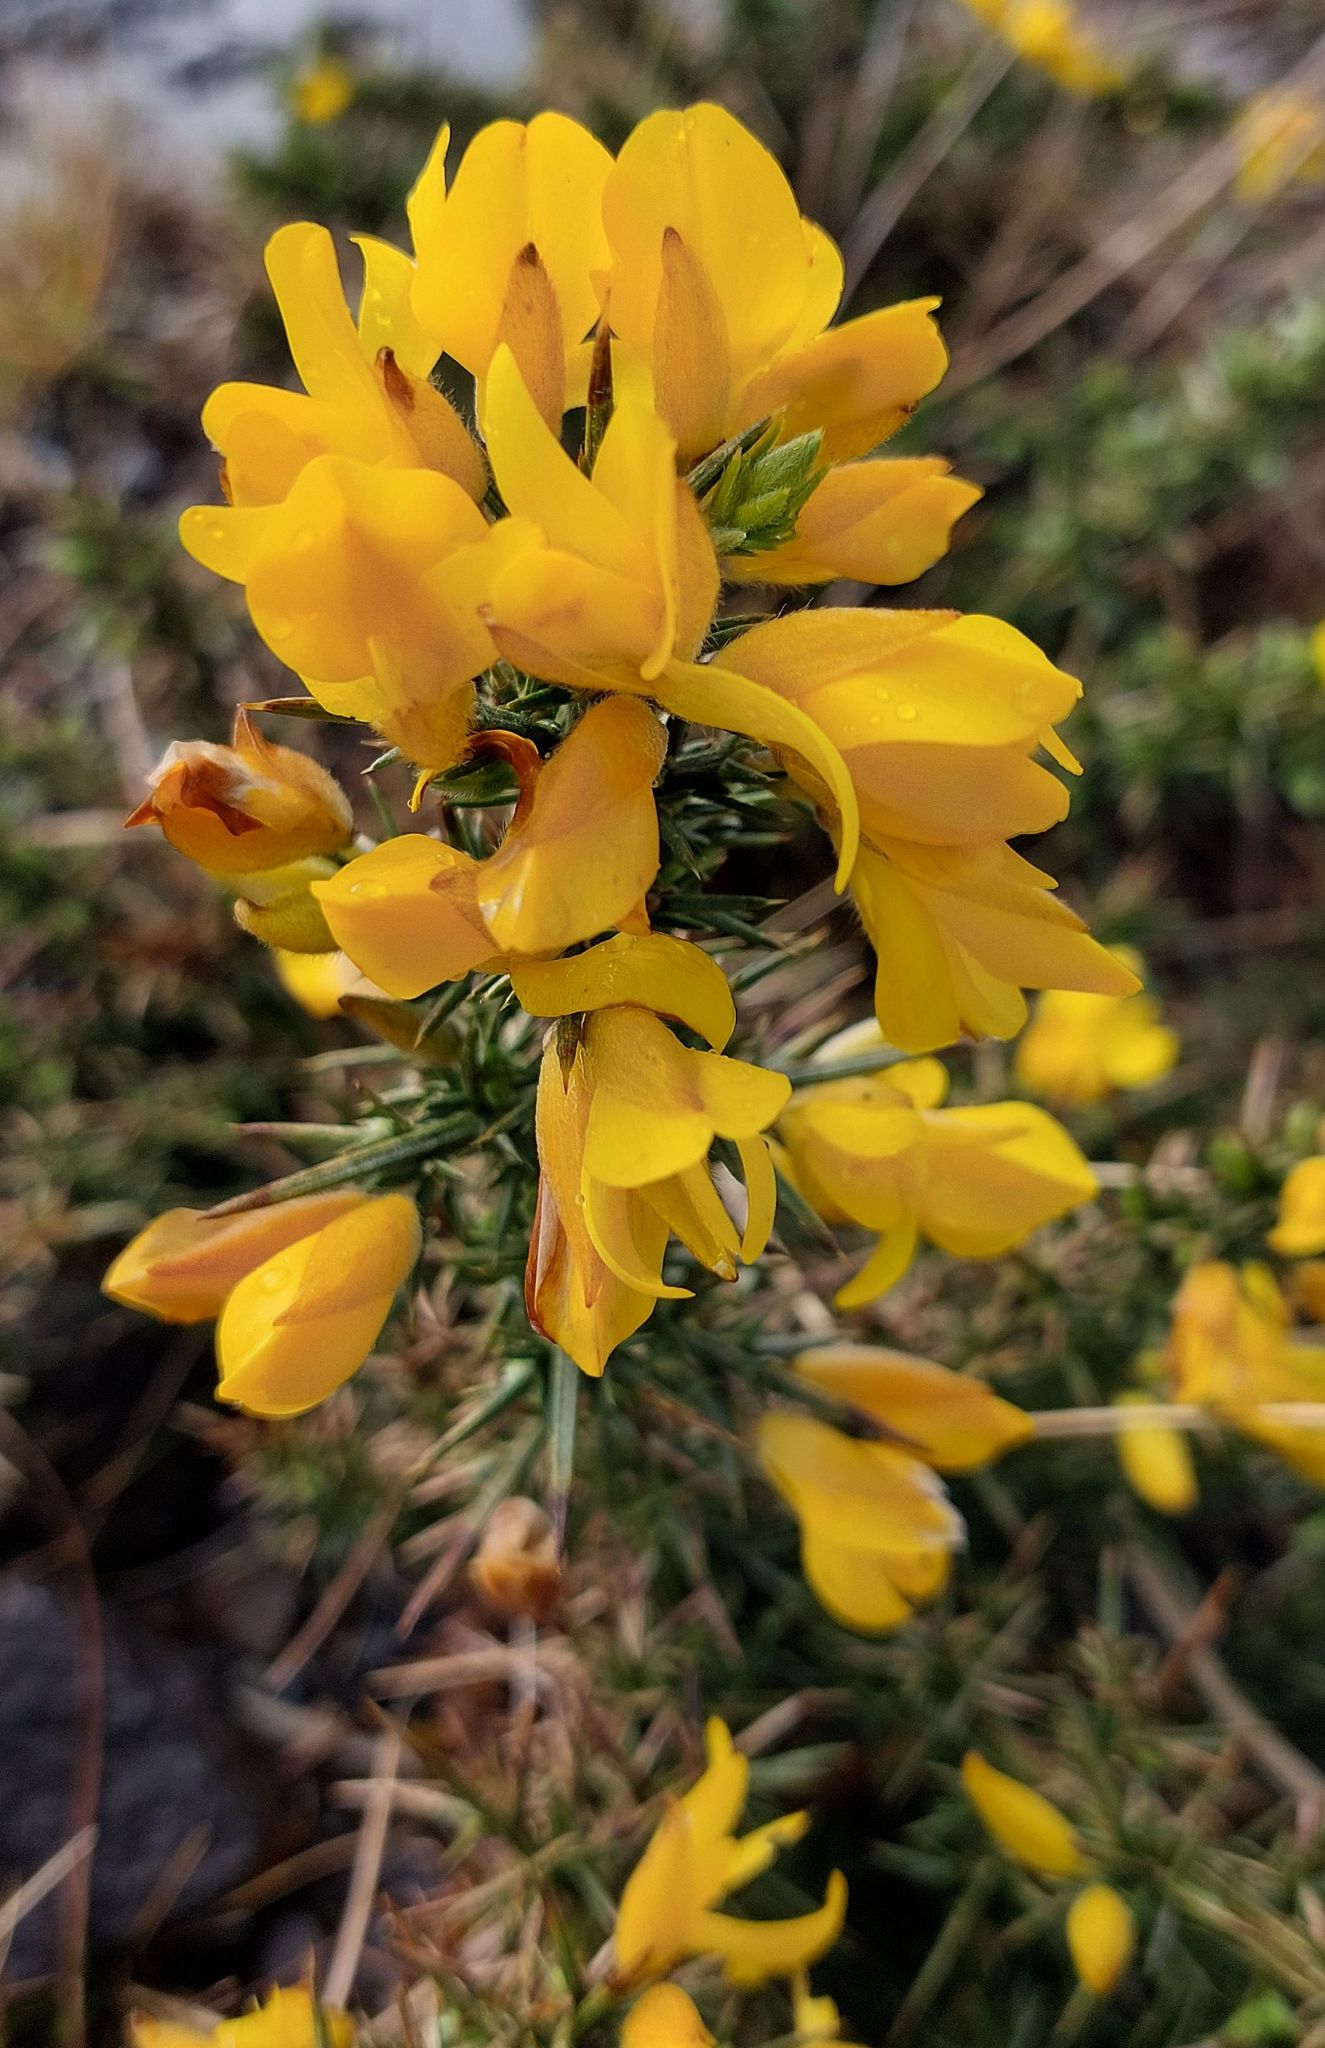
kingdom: Plantae
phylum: Tracheophyta
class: Magnoliopsida
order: Fabales
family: Fabaceae
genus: Ulex
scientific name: Ulex europaeus
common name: Common gorse
